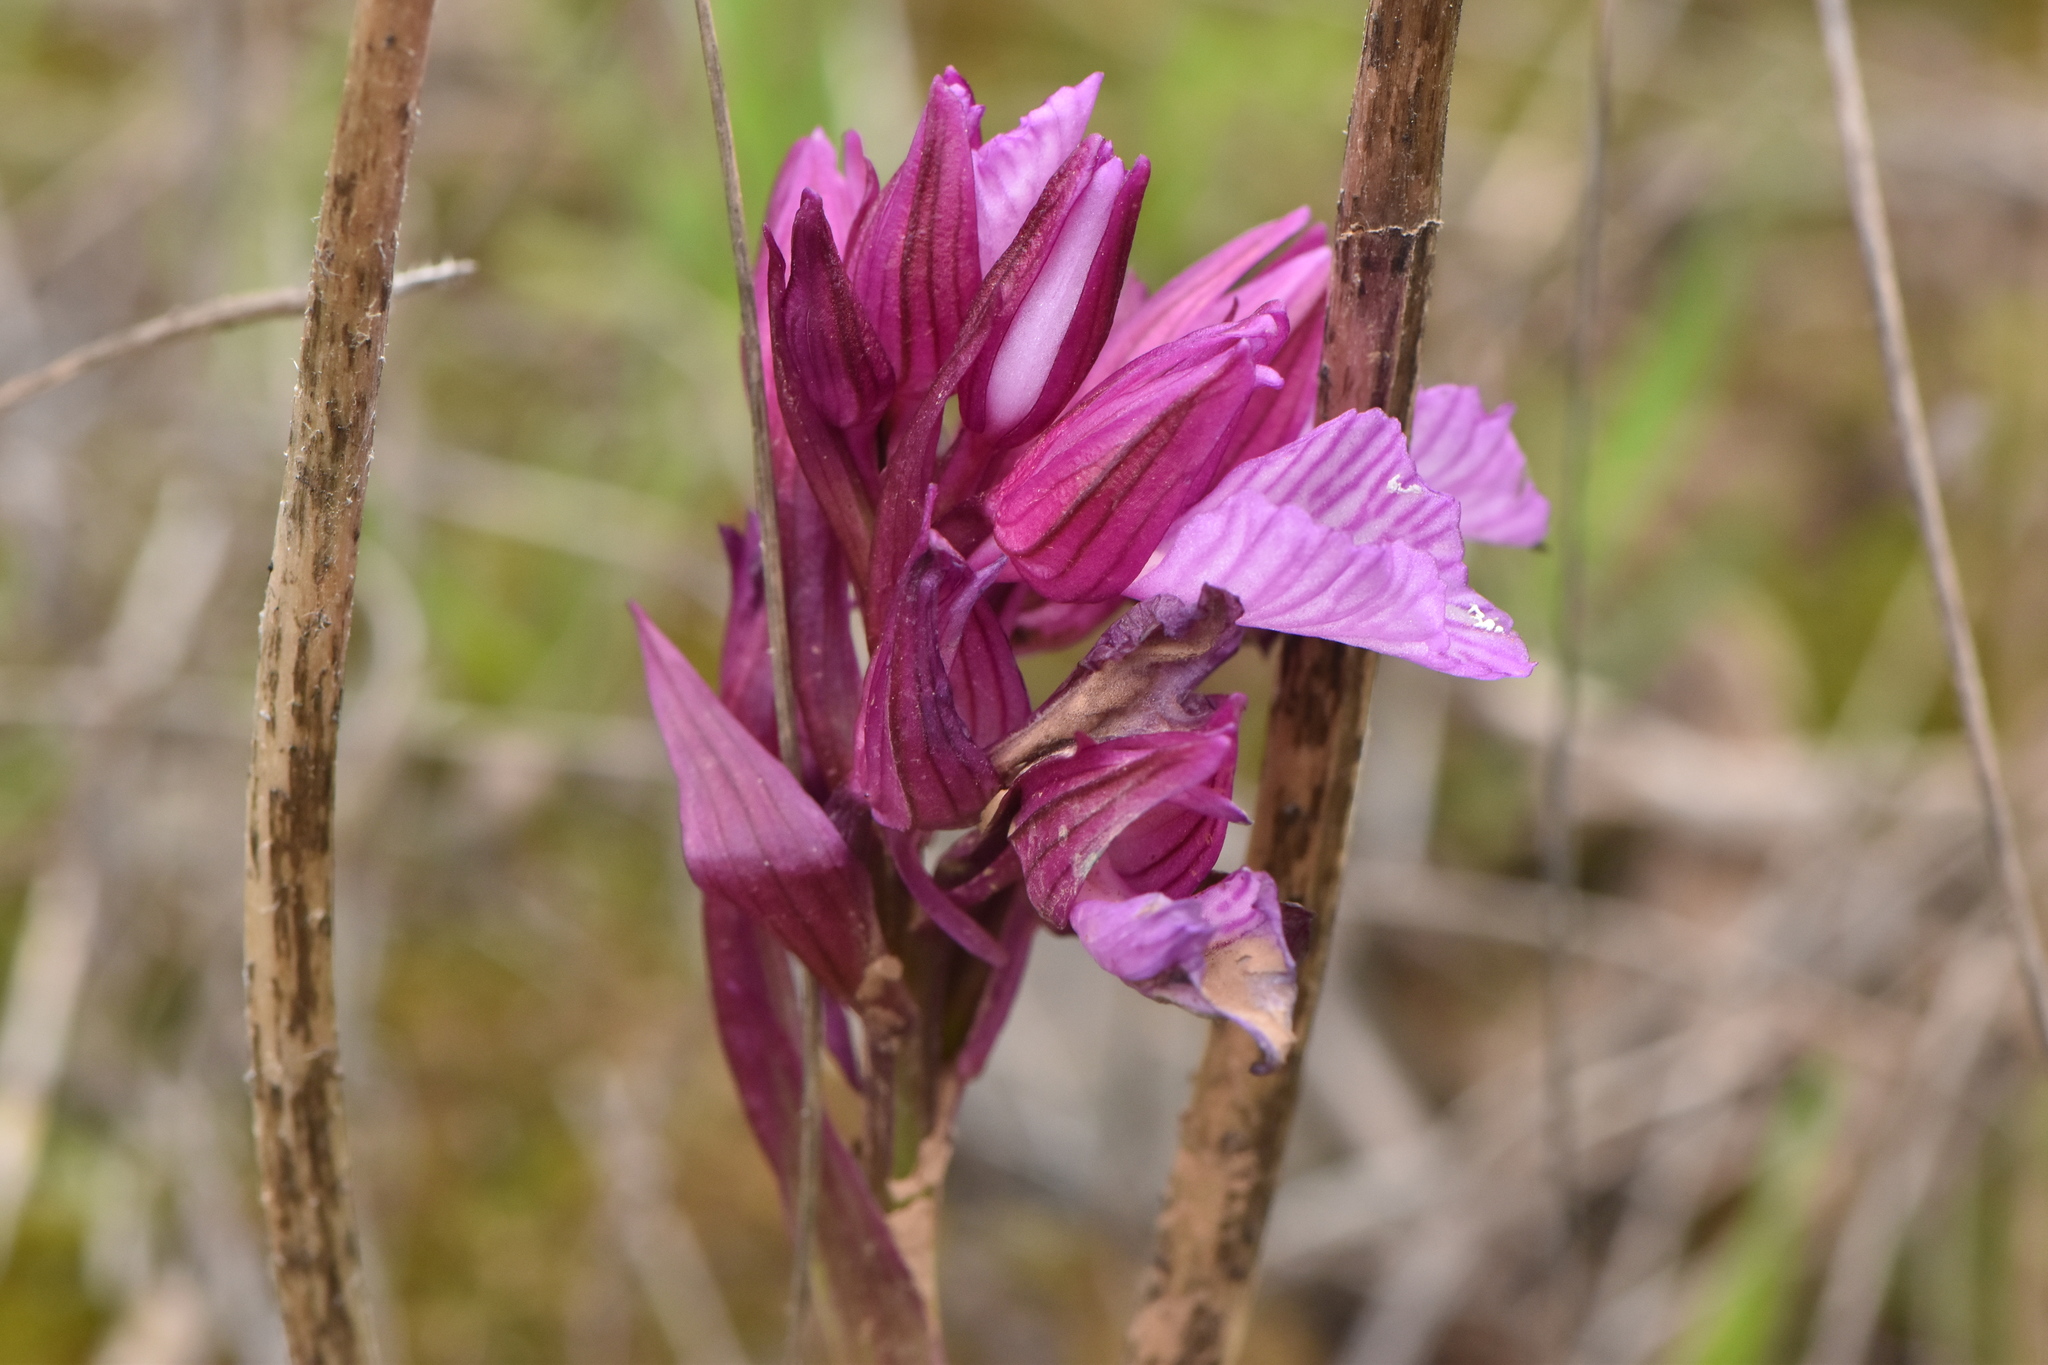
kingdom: Plantae
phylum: Tracheophyta
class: Liliopsida
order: Asparagales
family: Orchidaceae
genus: Anacamptis
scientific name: Anacamptis papilionacea
